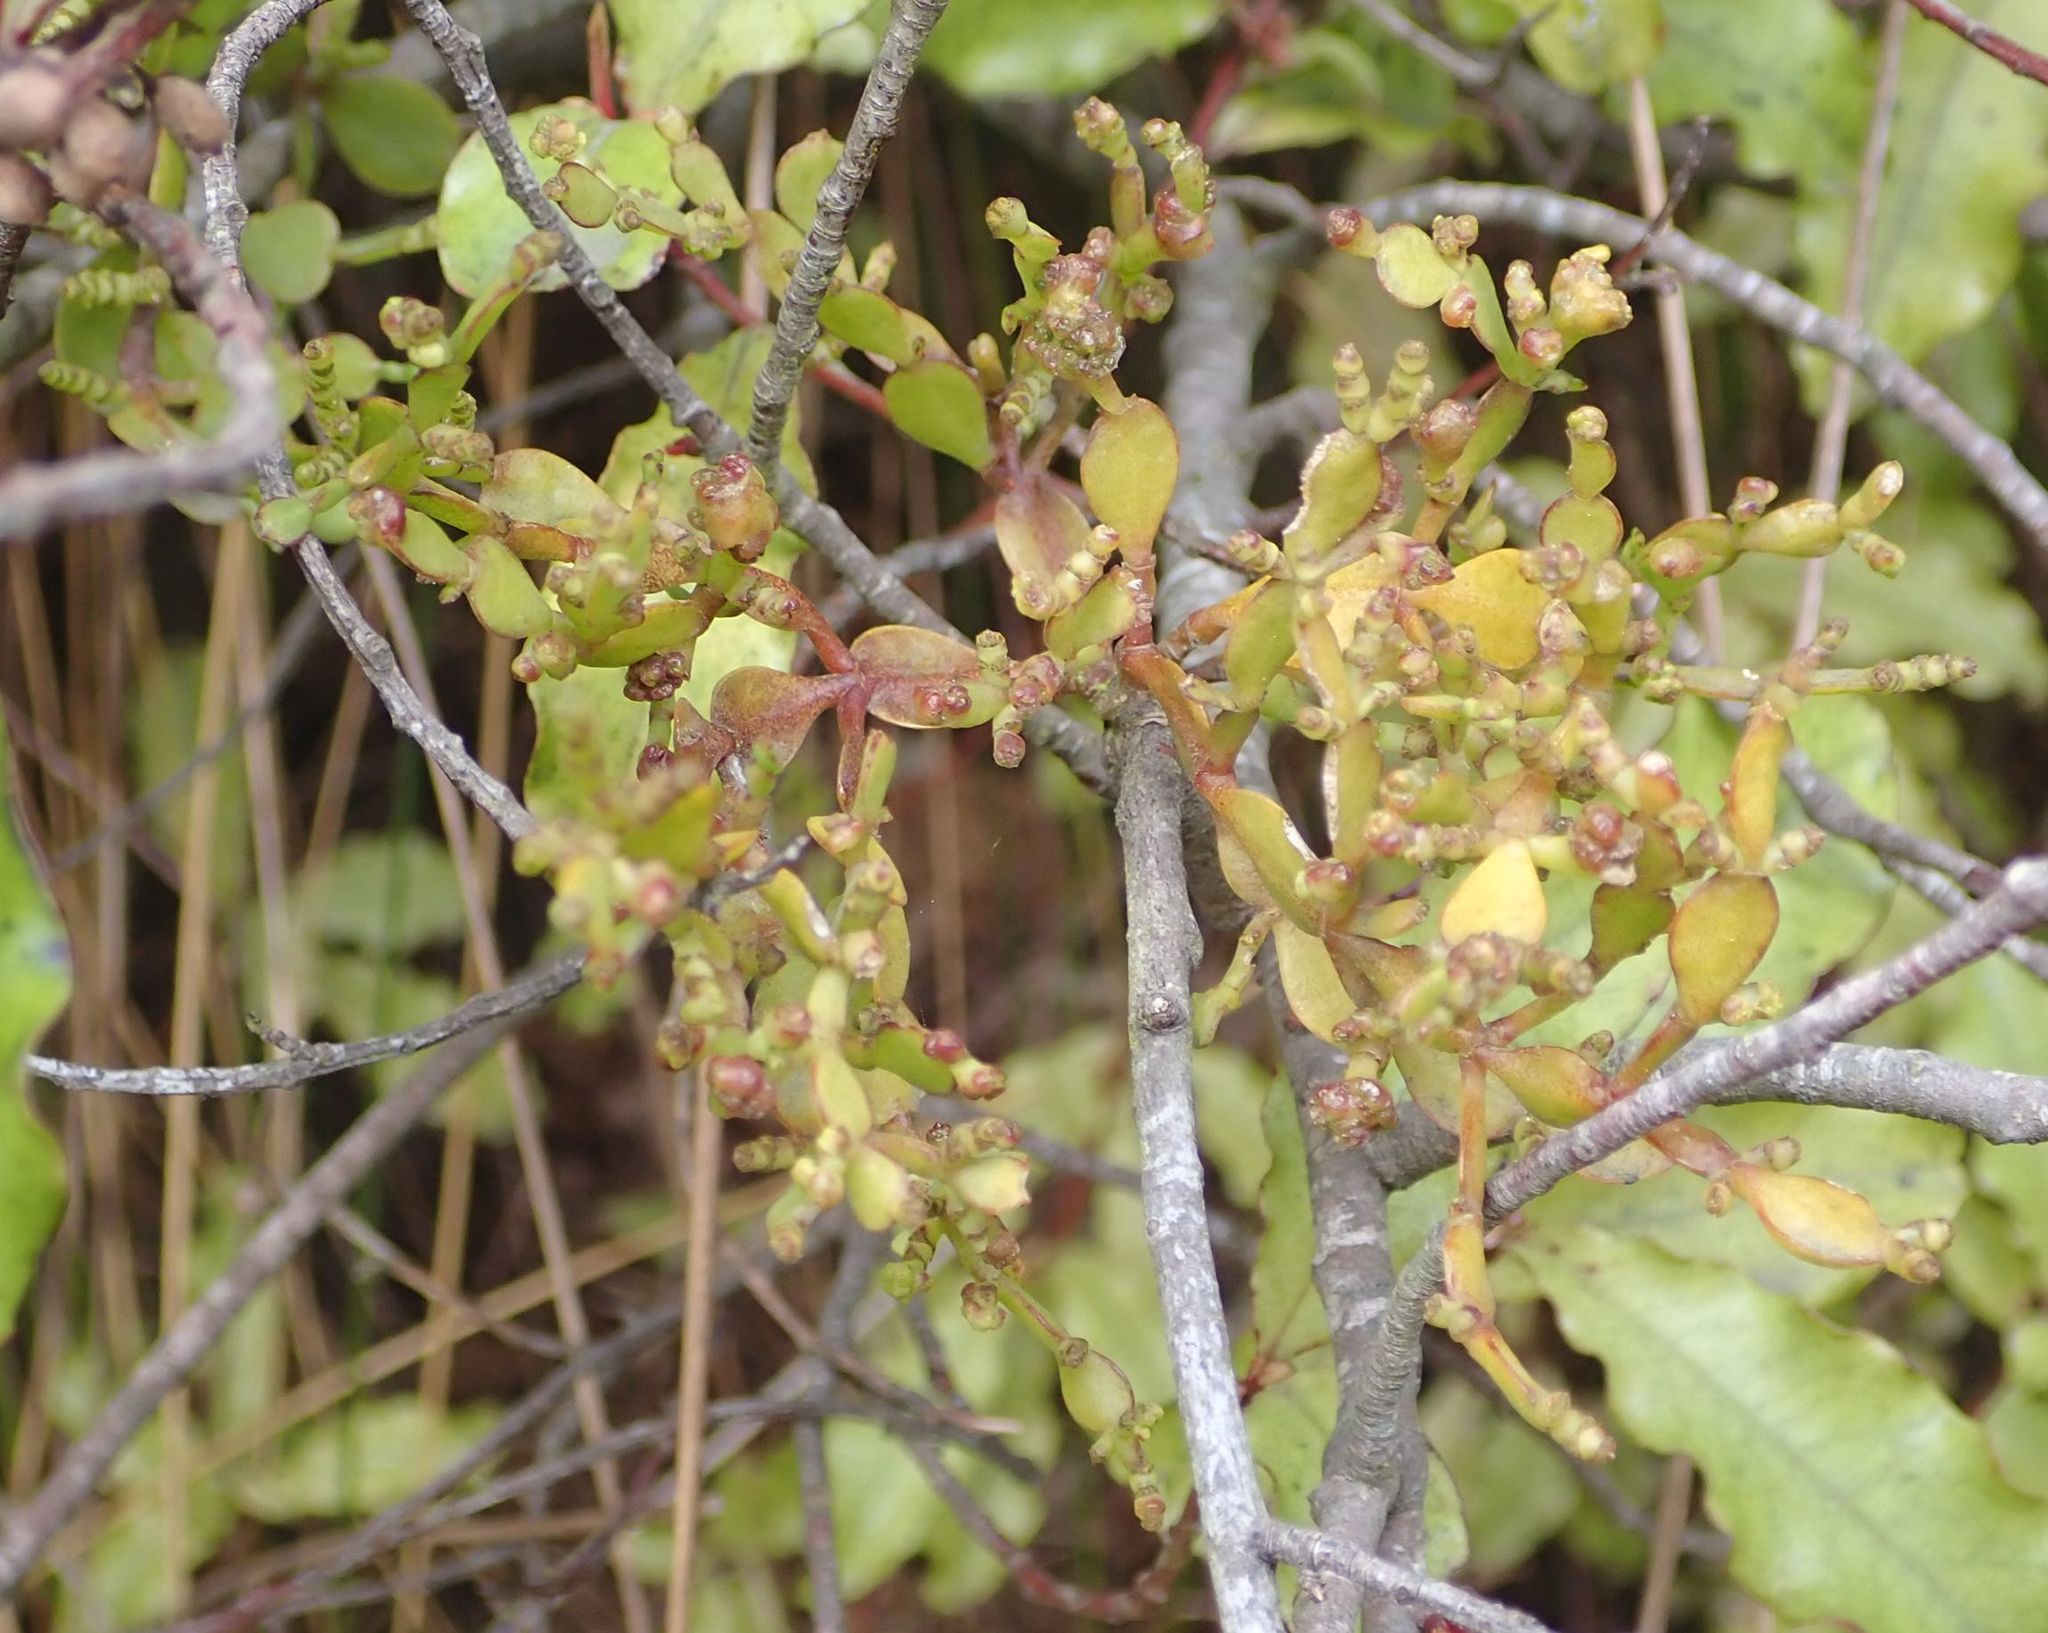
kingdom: Plantae
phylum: Tracheophyta
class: Magnoliopsida
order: Santalales
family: Viscaceae
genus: Korthalsella
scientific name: Korthalsella lindsayi
